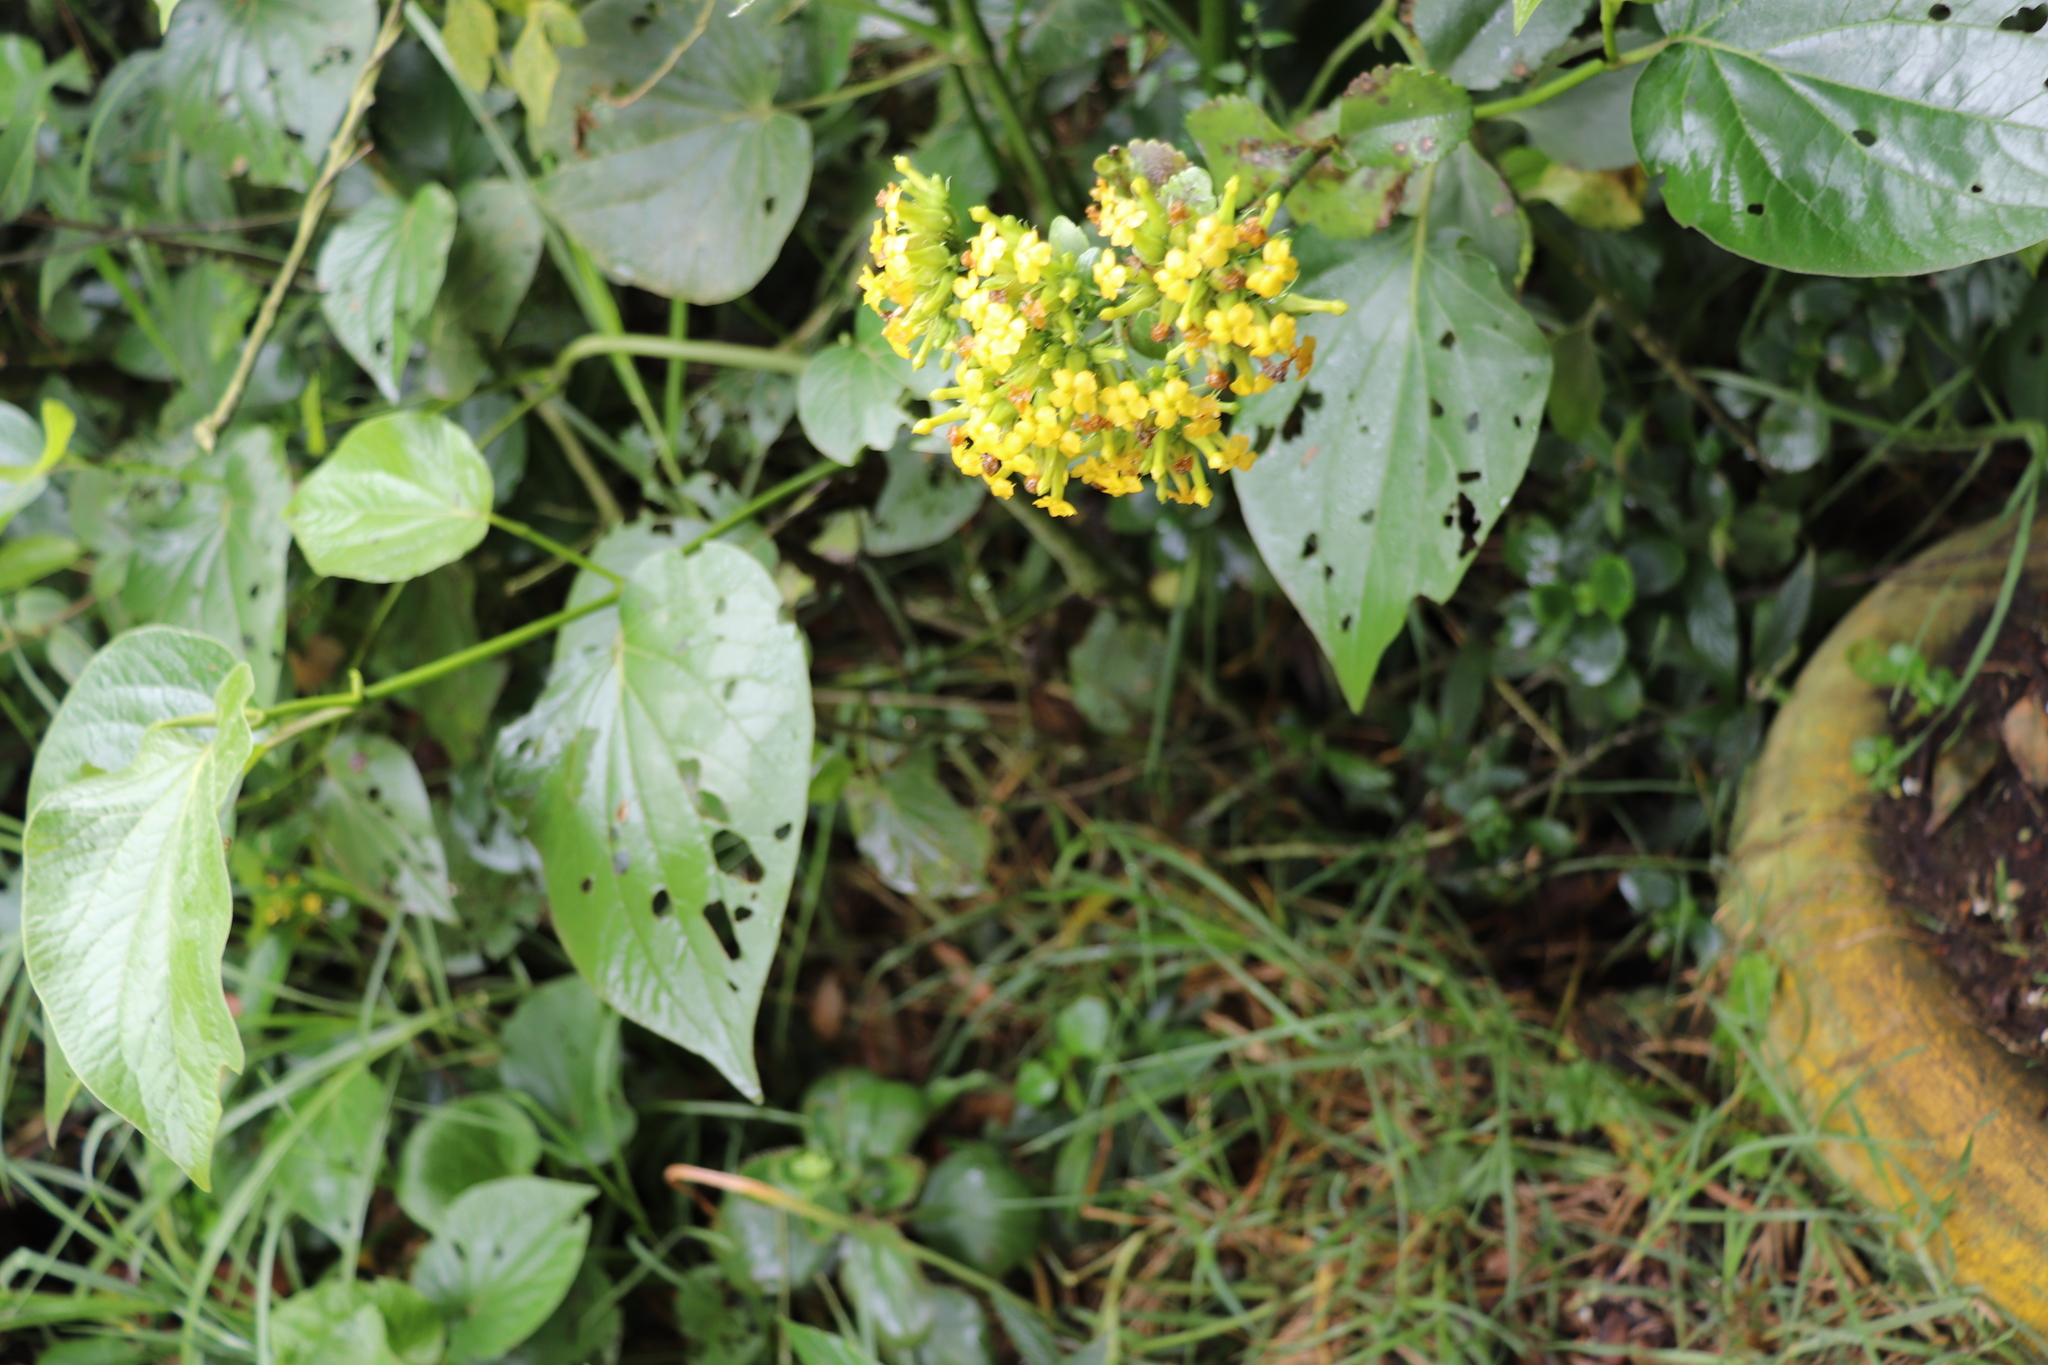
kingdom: Plantae
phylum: Tracheophyta
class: Magnoliopsida
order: Saxifragales
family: Crassulaceae
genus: Kalanchoe
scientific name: Kalanchoe densiflora
